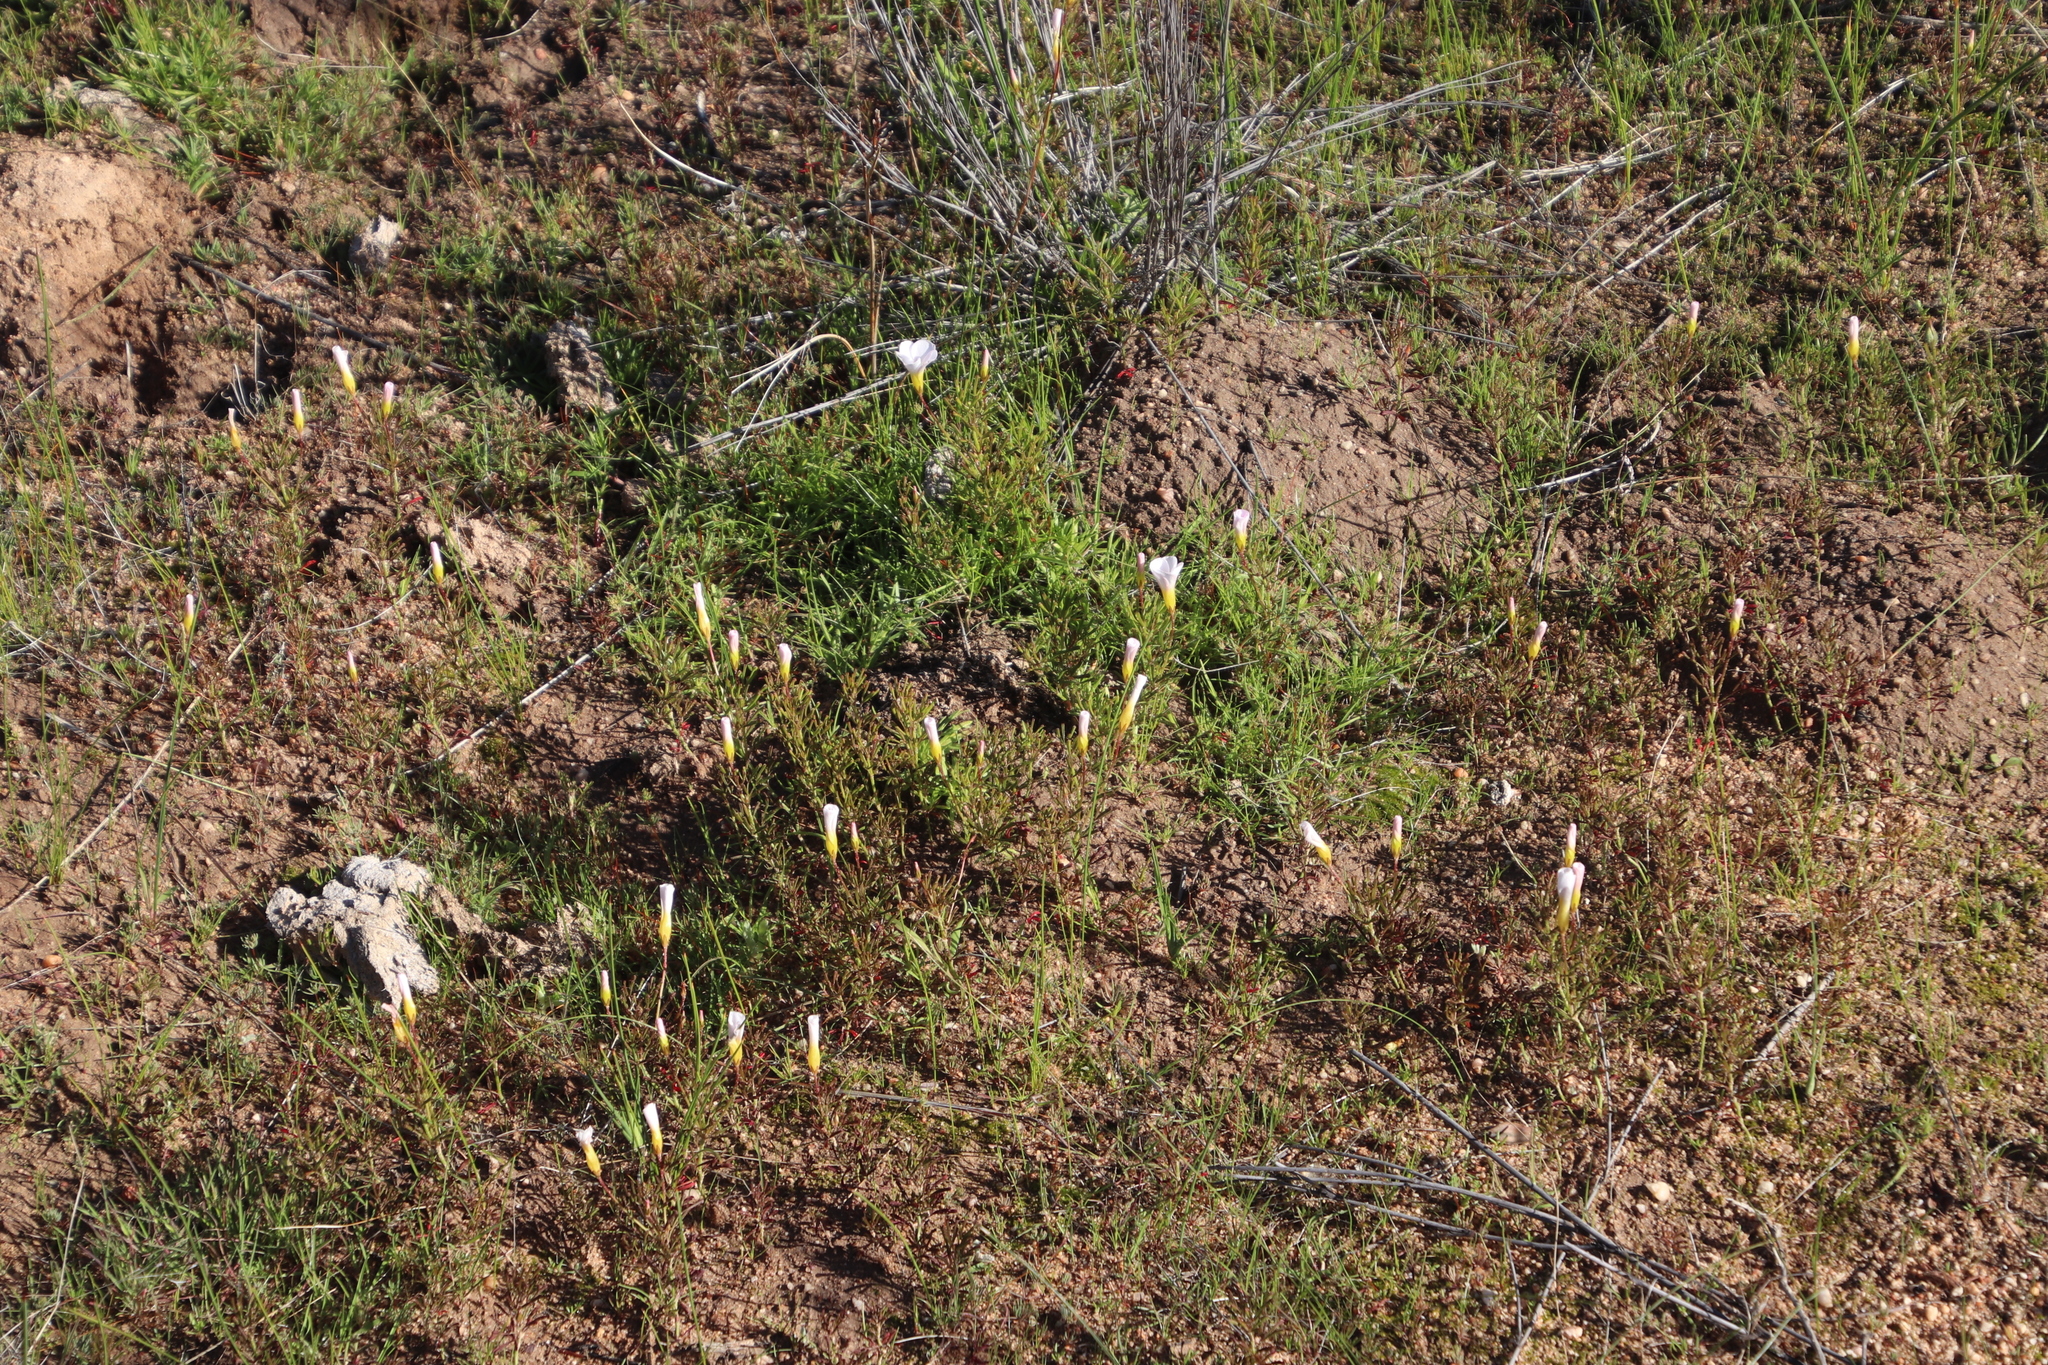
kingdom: Plantae
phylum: Tracheophyta
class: Magnoliopsida
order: Oxalidales
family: Oxalidaceae
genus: Oxalis
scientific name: Oxalis recticaulis
